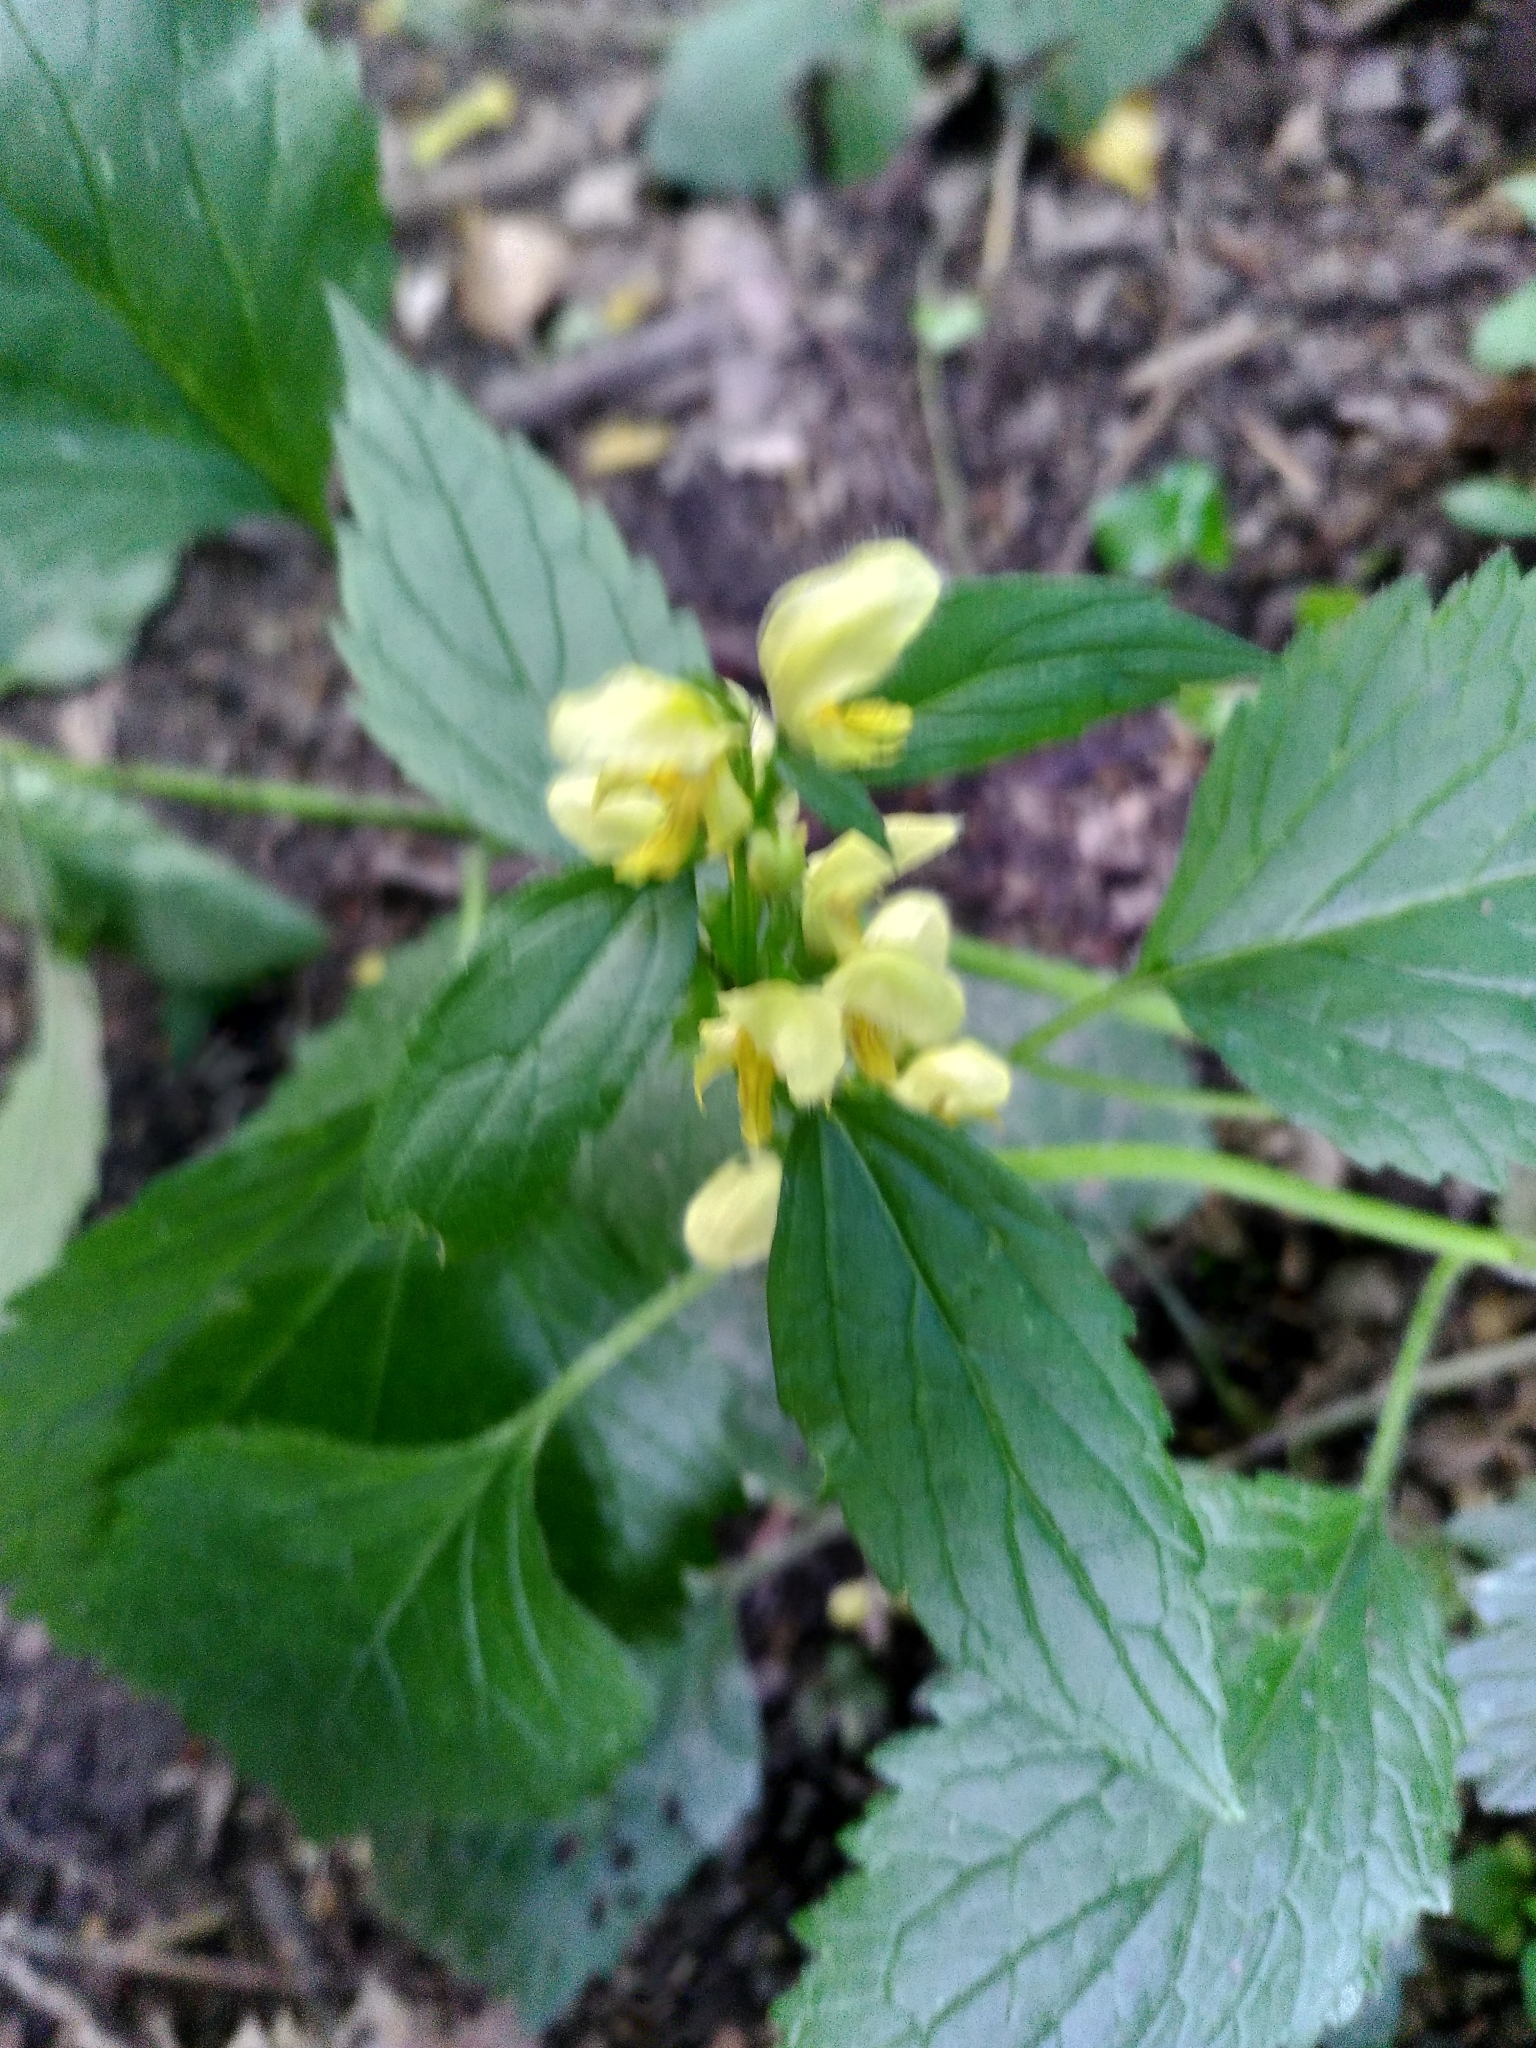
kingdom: Plantae
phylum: Tracheophyta
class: Magnoliopsida
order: Lamiales
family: Lamiaceae
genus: Lamium
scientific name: Lamium galeobdolon
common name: Yellow archangel
